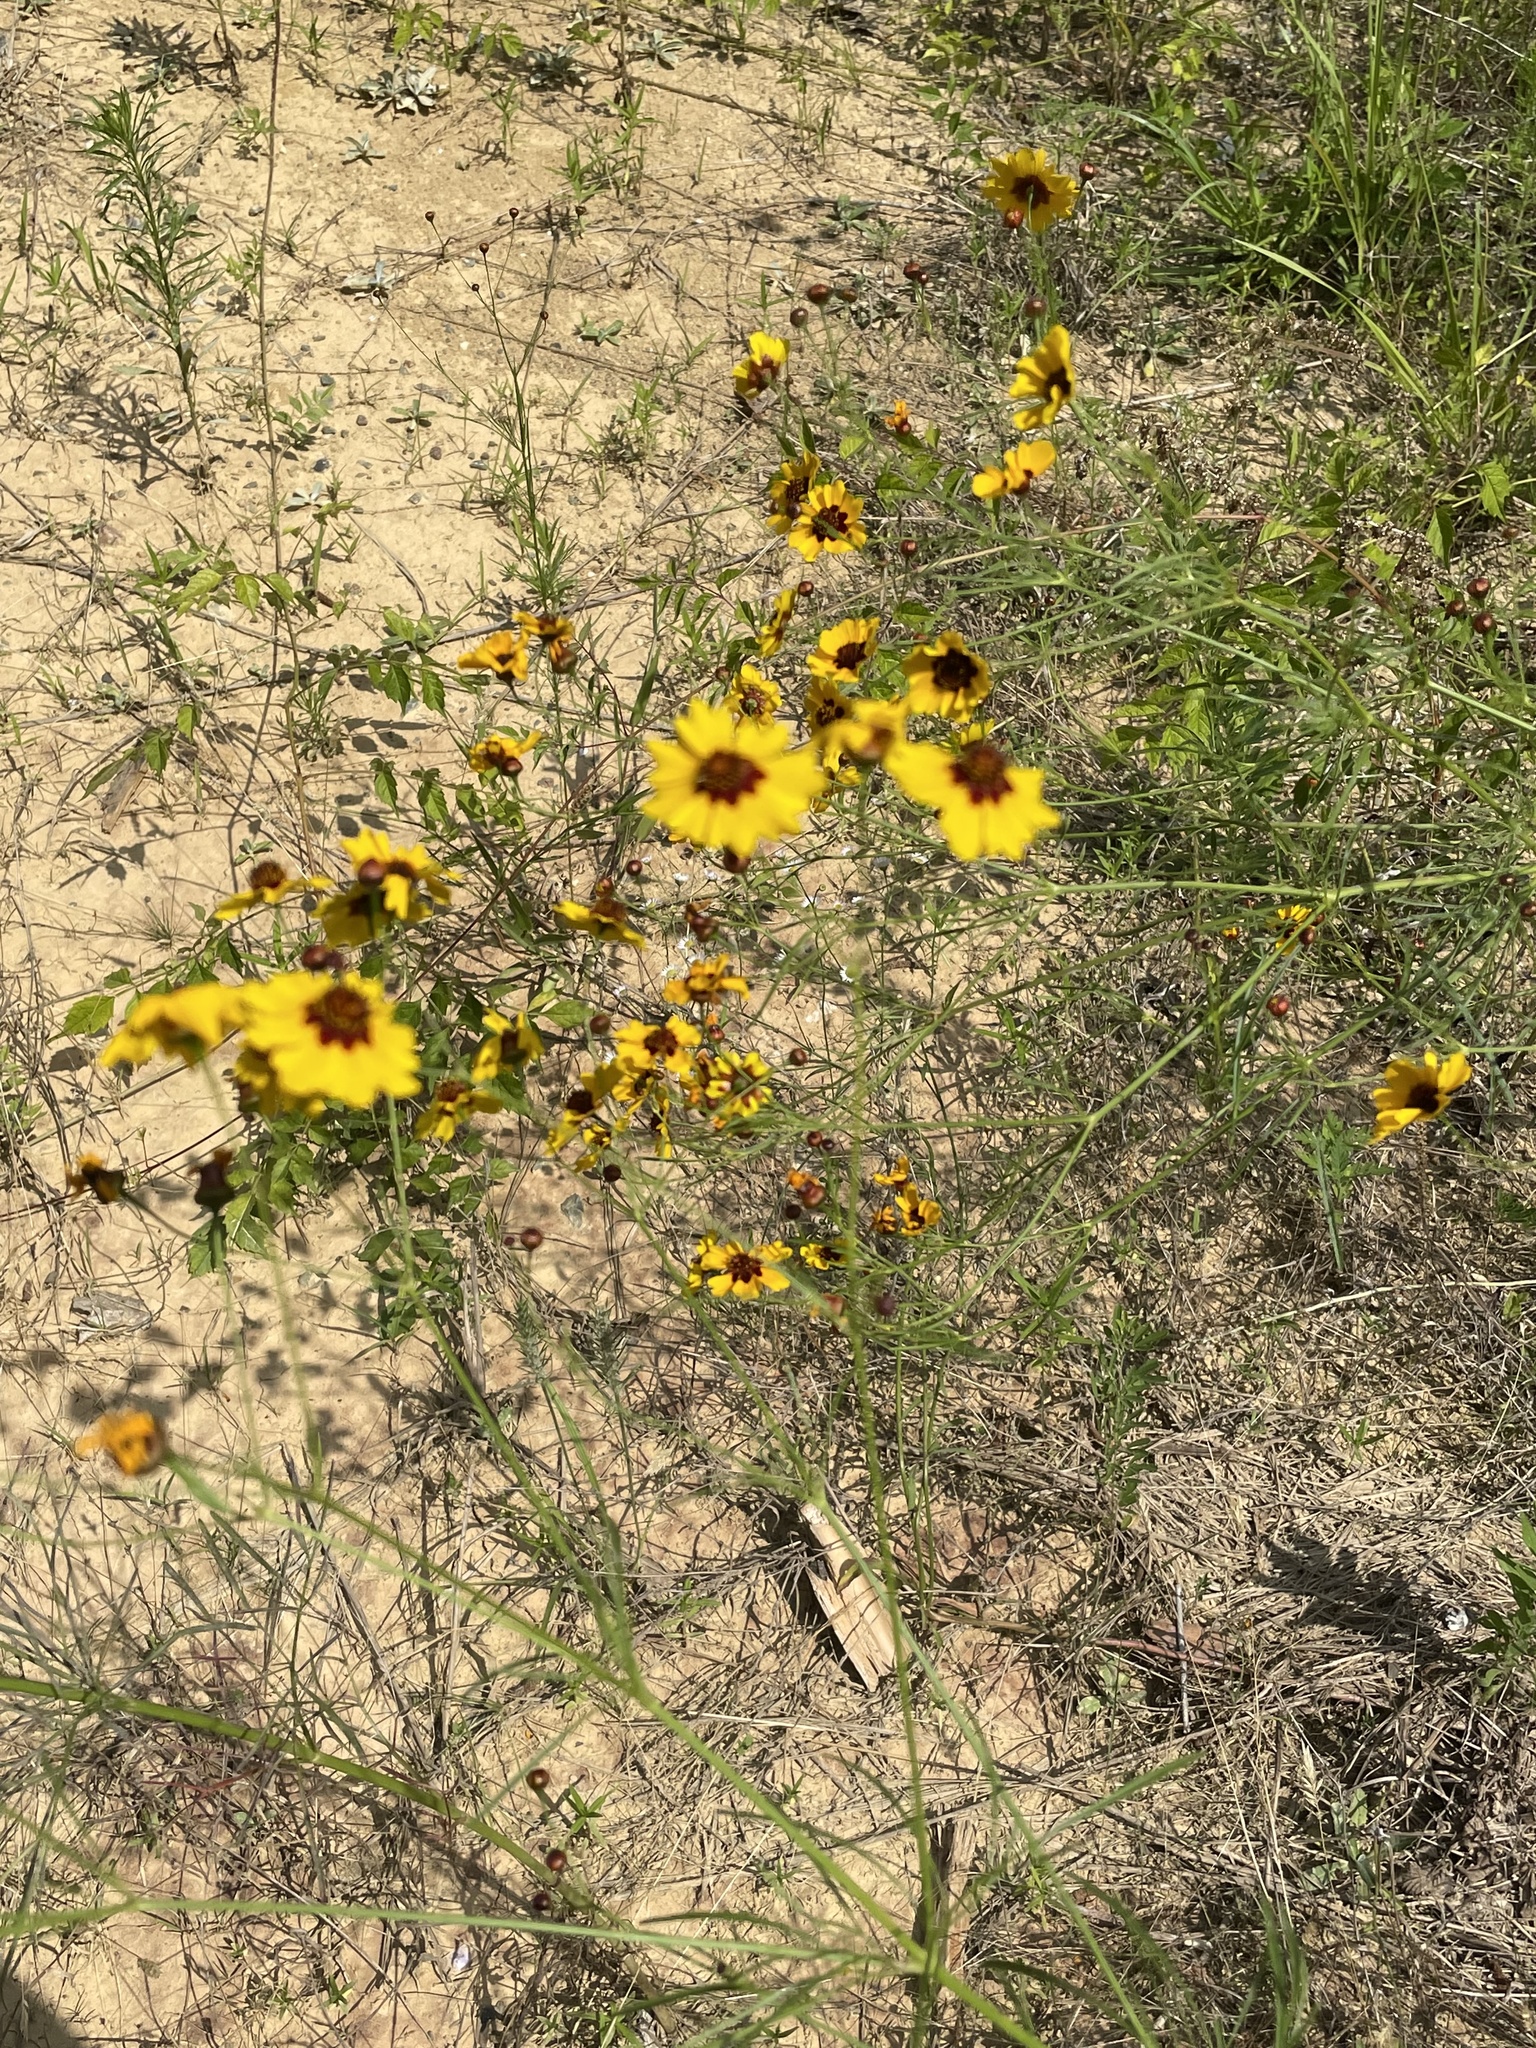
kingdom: Plantae
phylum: Tracheophyta
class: Magnoliopsida
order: Asterales
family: Asteraceae
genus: Coreopsis
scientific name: Coreopsis tinctoria
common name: Garden tickseed
